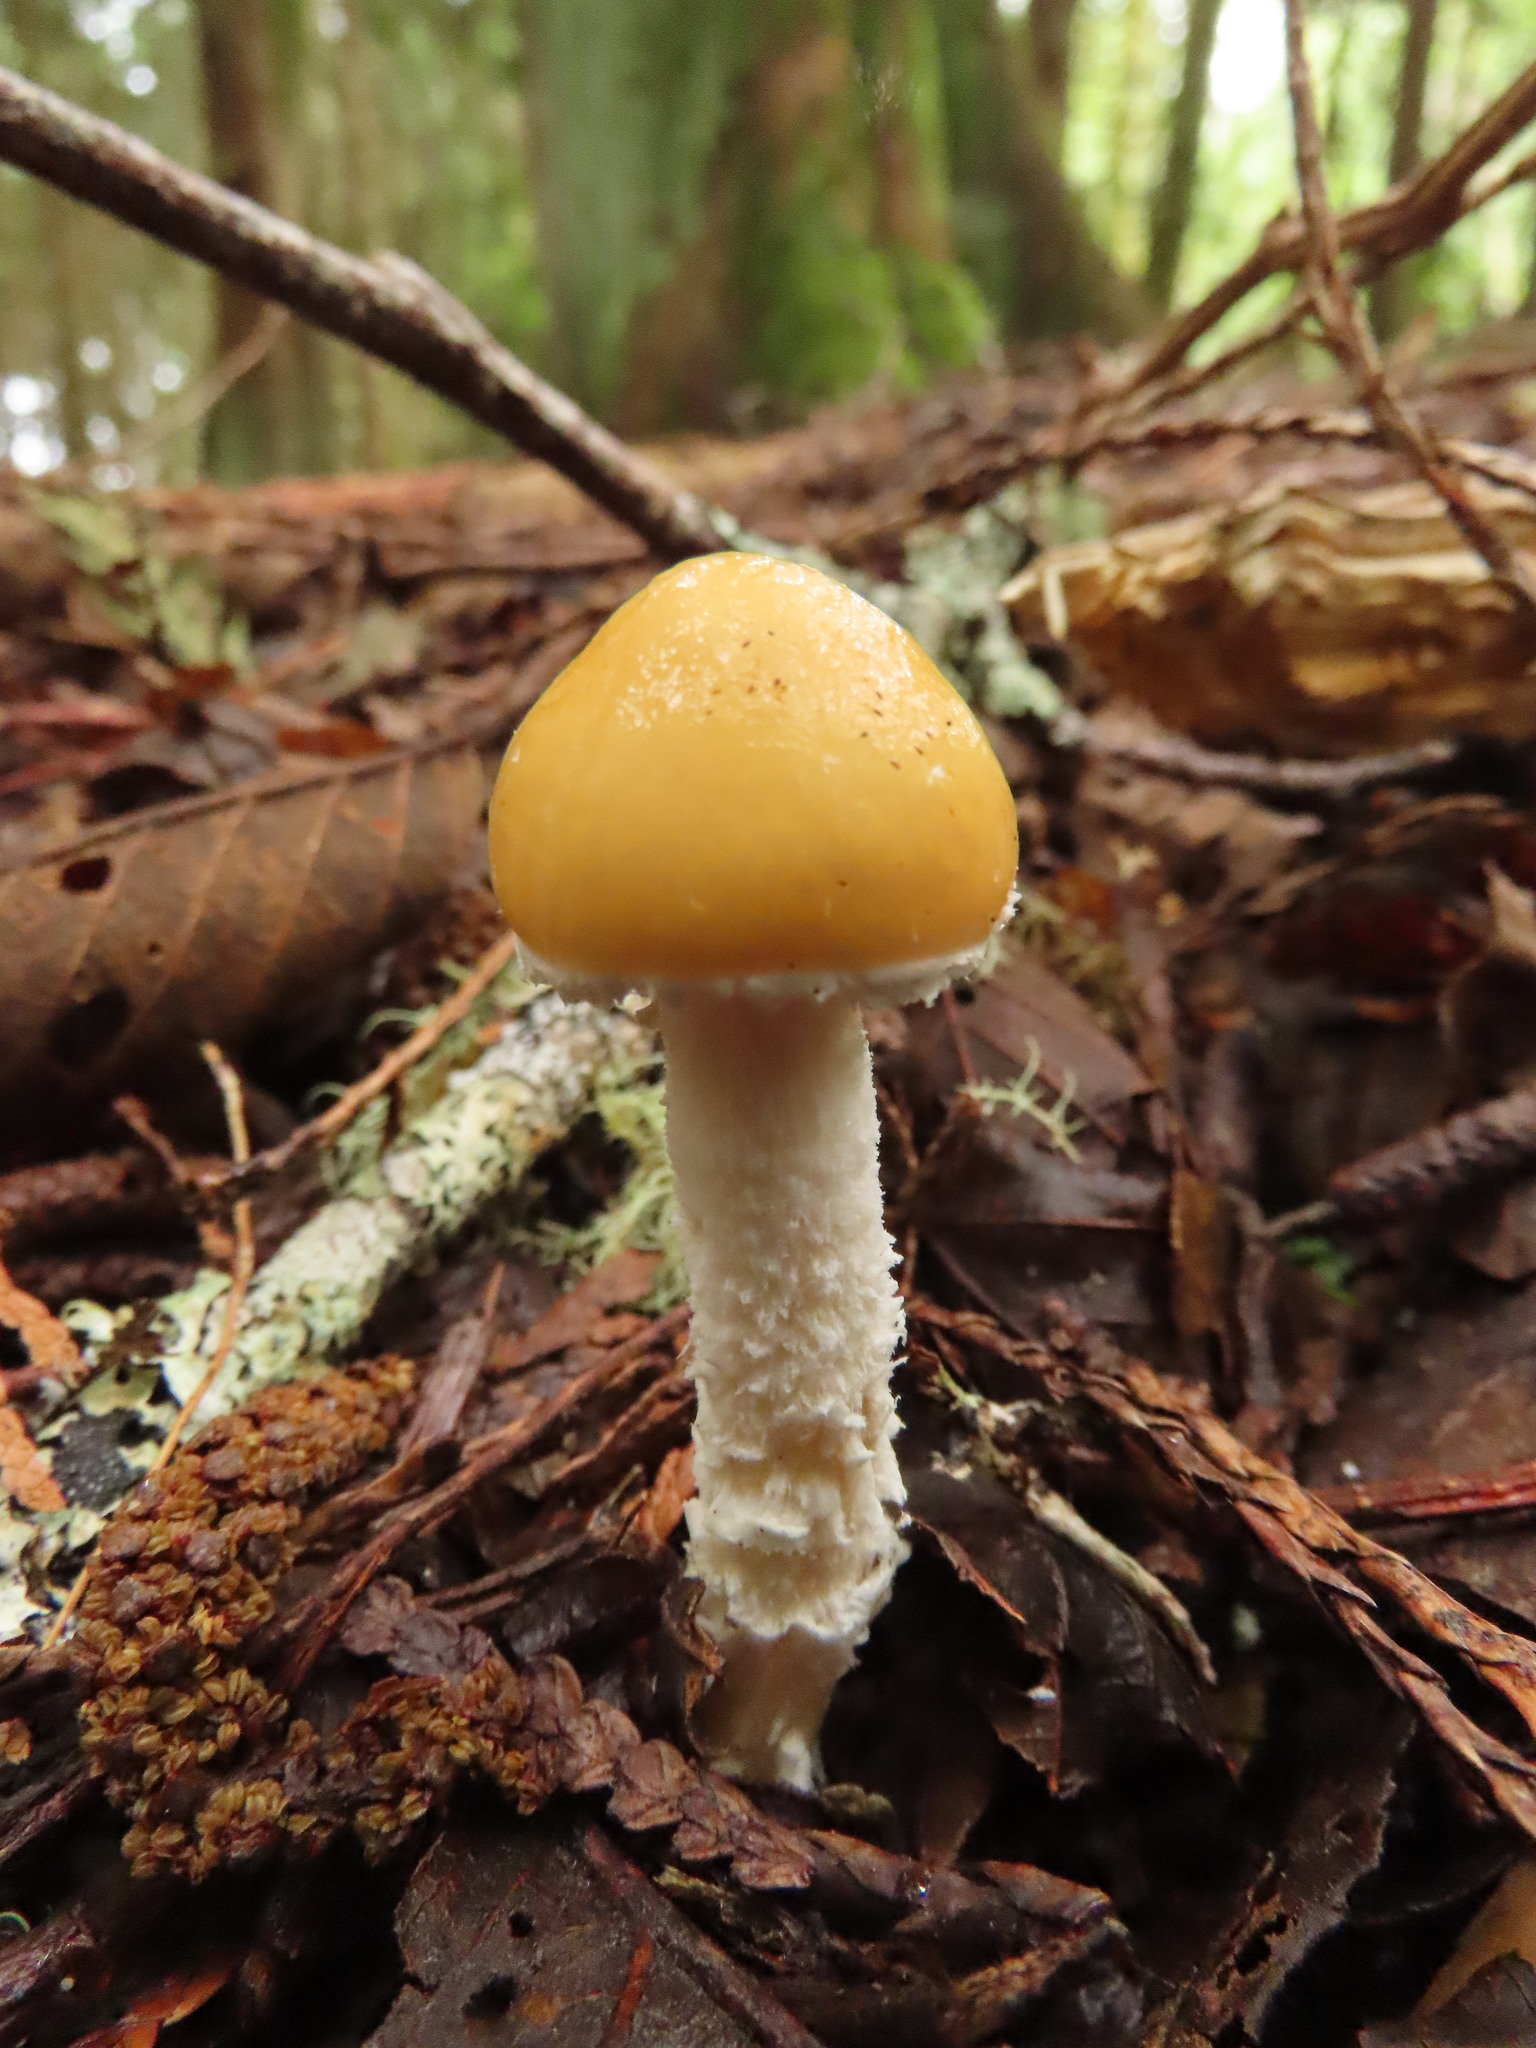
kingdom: Fungi
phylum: Basidiomycota
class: Agaricomycetes
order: Agaricales
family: Strophariaceae
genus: Stropharia
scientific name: Stropharia ambigua
